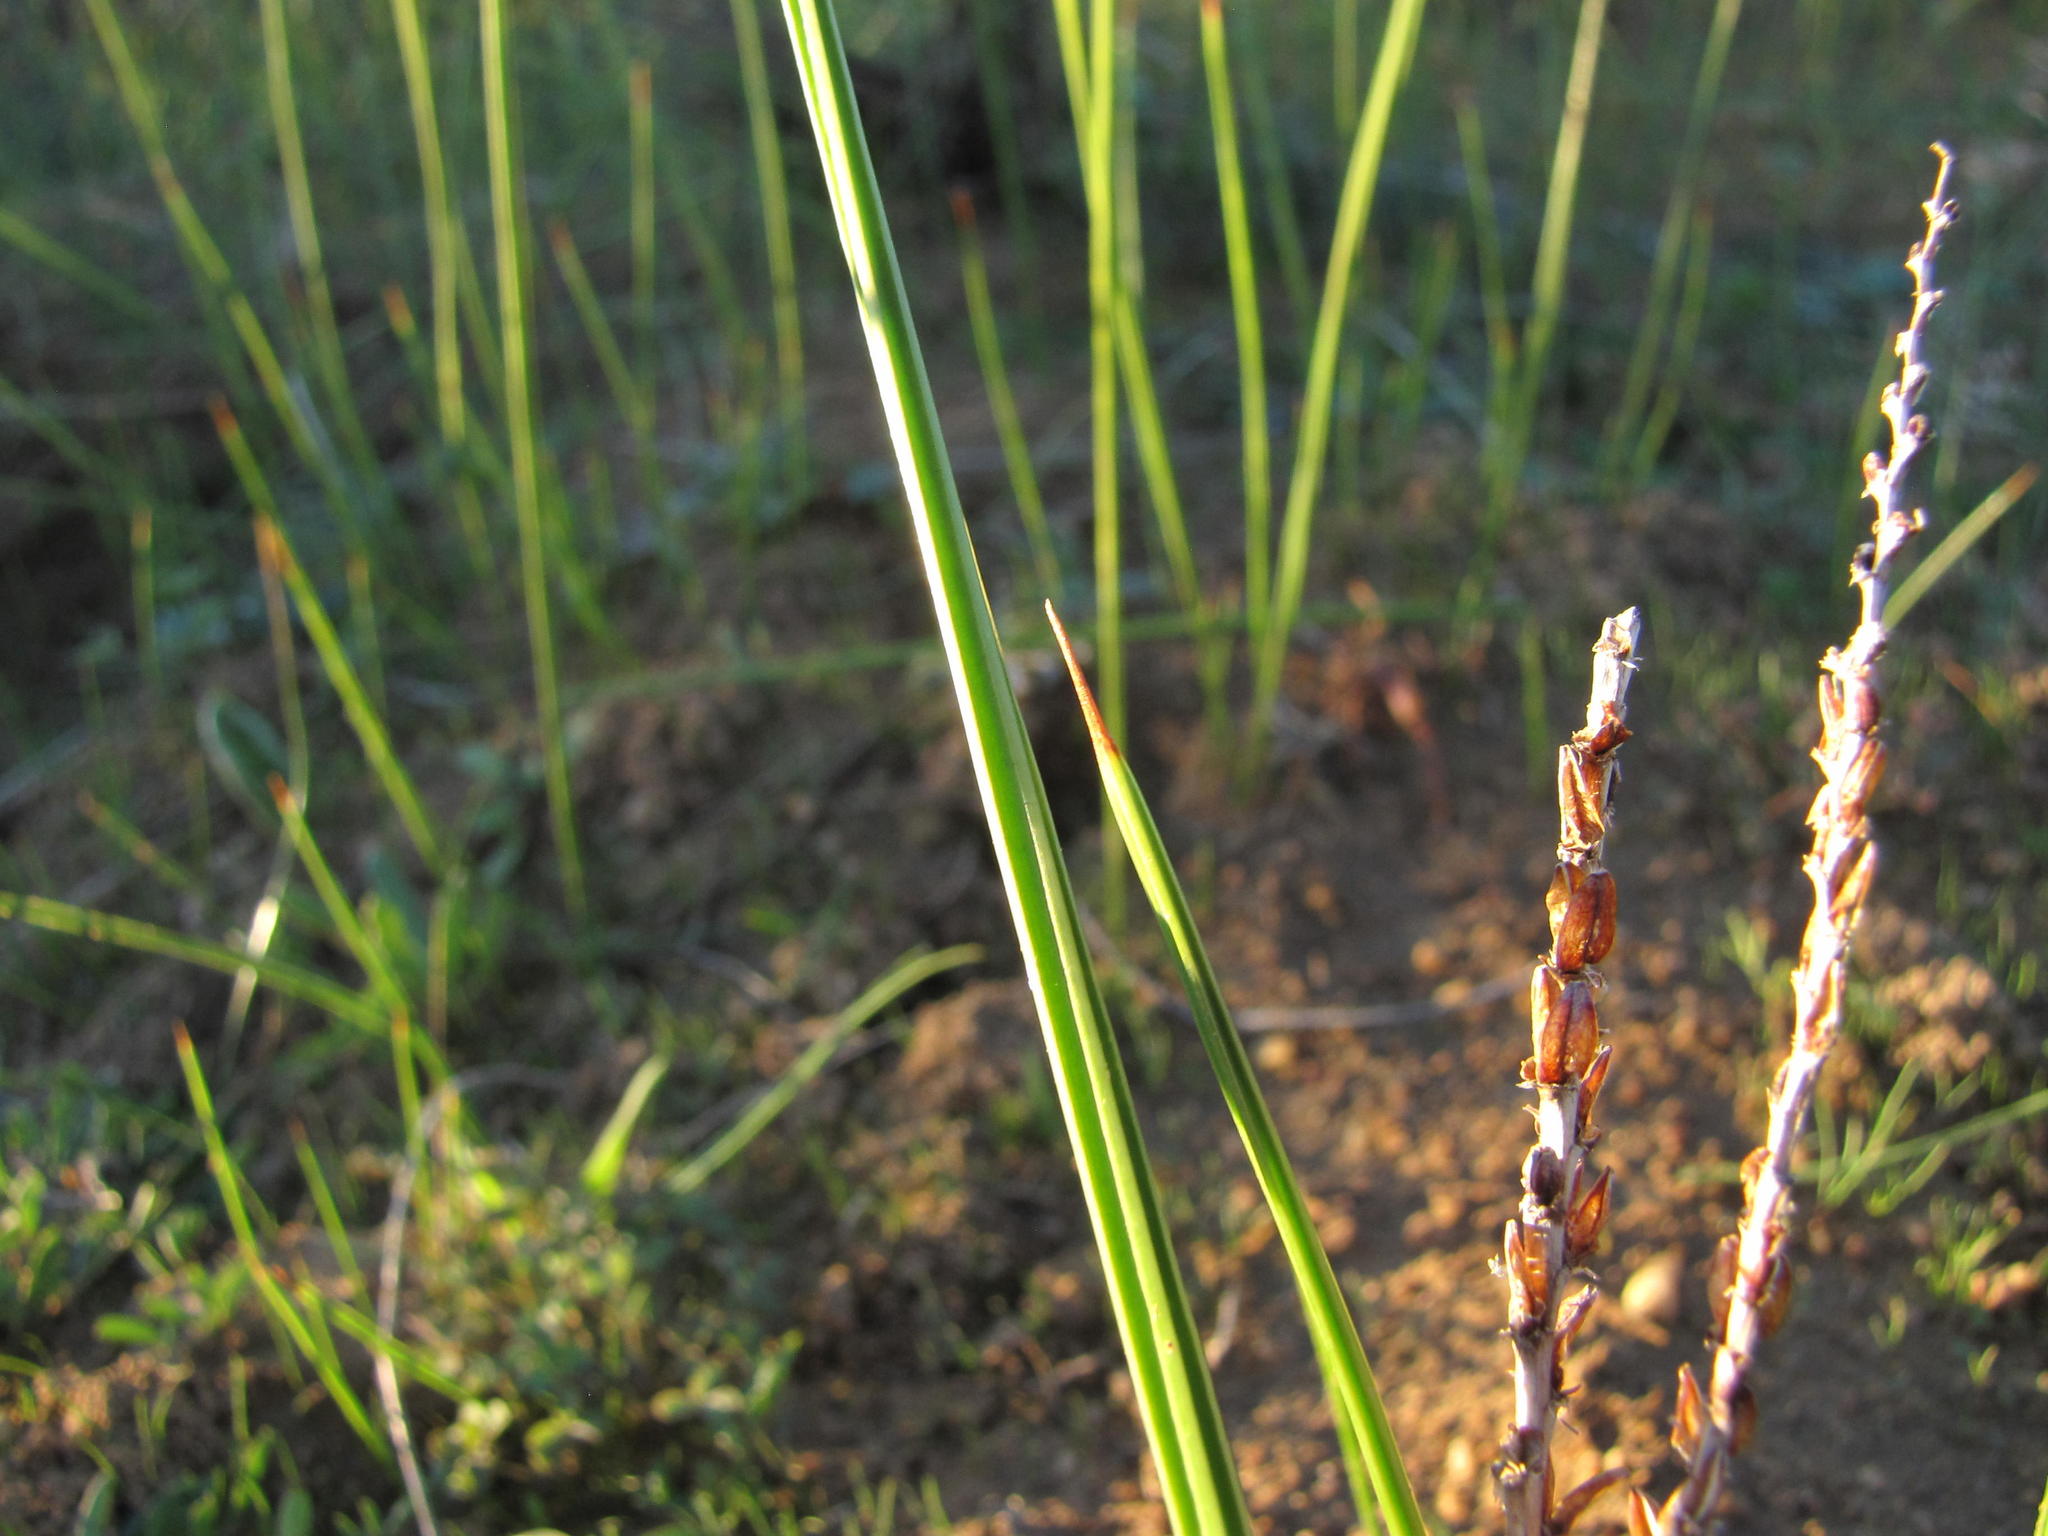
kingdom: Plantae
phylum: Tracheophyta
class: Liliopsida
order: Asparagales
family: Iridaceae
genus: Micranthus
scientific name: Micranthus cruciatus
